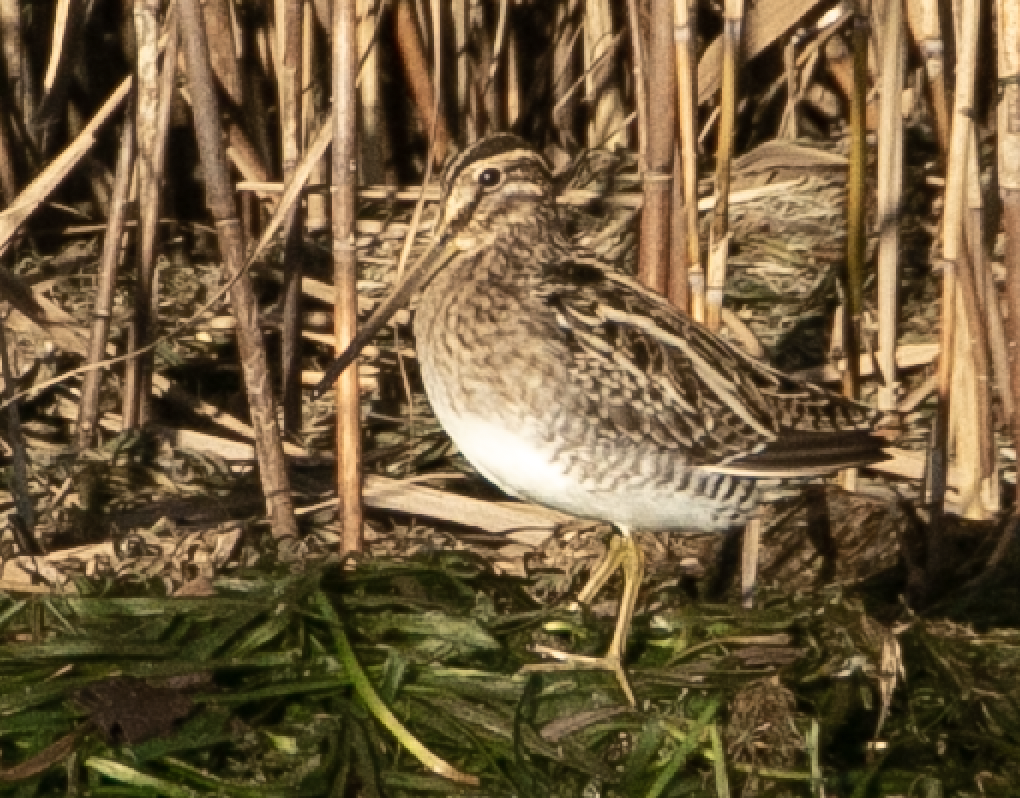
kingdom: Animalia
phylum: Chordata
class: Aves
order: Charadriiformes
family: Scolopacidae
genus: Gallinago
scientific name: Gallinago gallinago
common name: Common snipe
